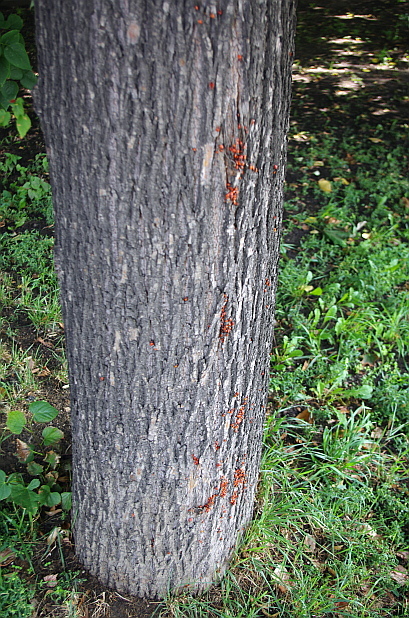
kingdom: Animalia
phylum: Arthropoda
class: Insecta
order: Hemiptera
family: Pyrrhocoridae
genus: Pyrrhocoris
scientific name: Pyrrhocoris apterus
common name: Firebug
